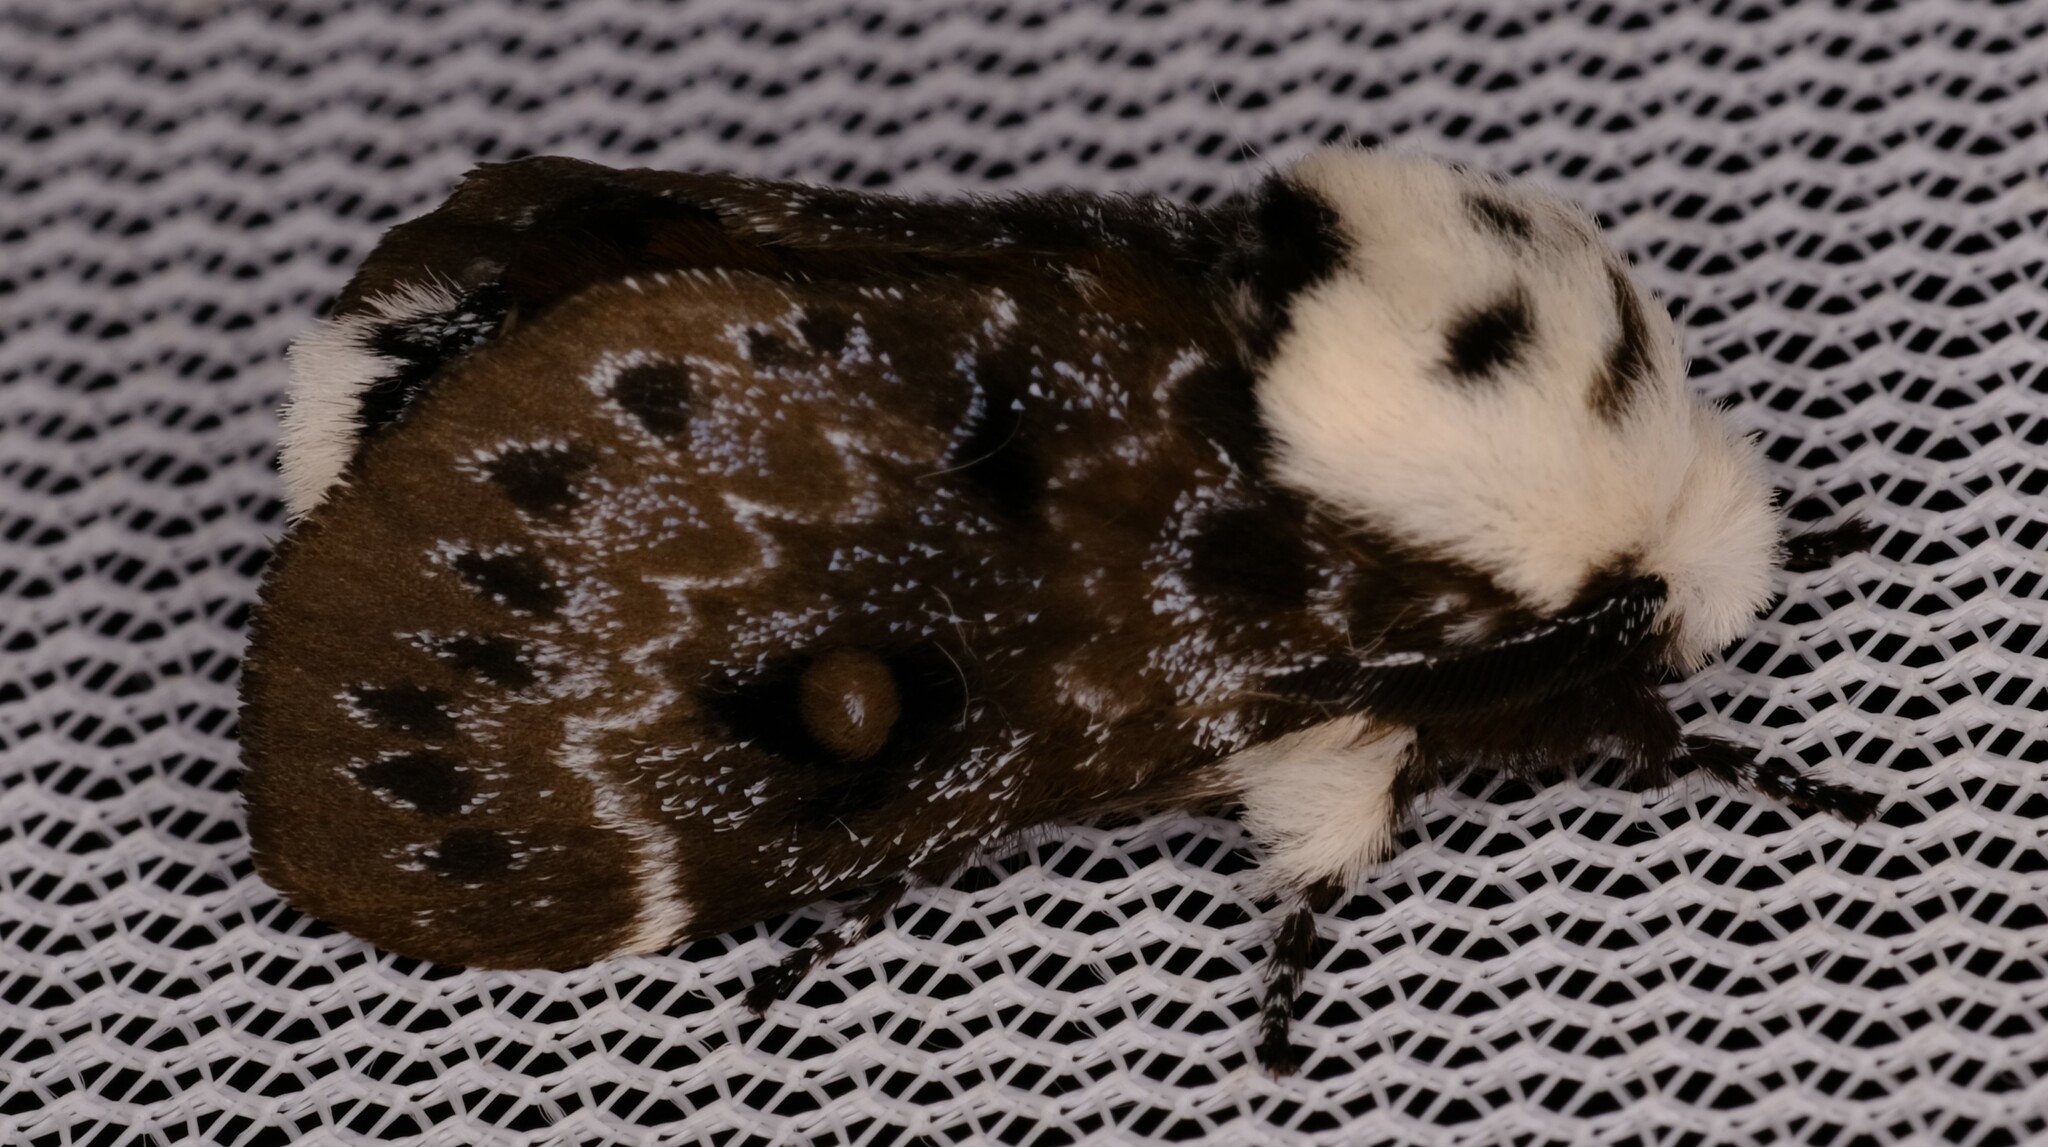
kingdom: Animalia
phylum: Arthropoda
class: Insecta
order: Lepidoptera
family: Lasiocampidae
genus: Genduara
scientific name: Genduara punctigera
